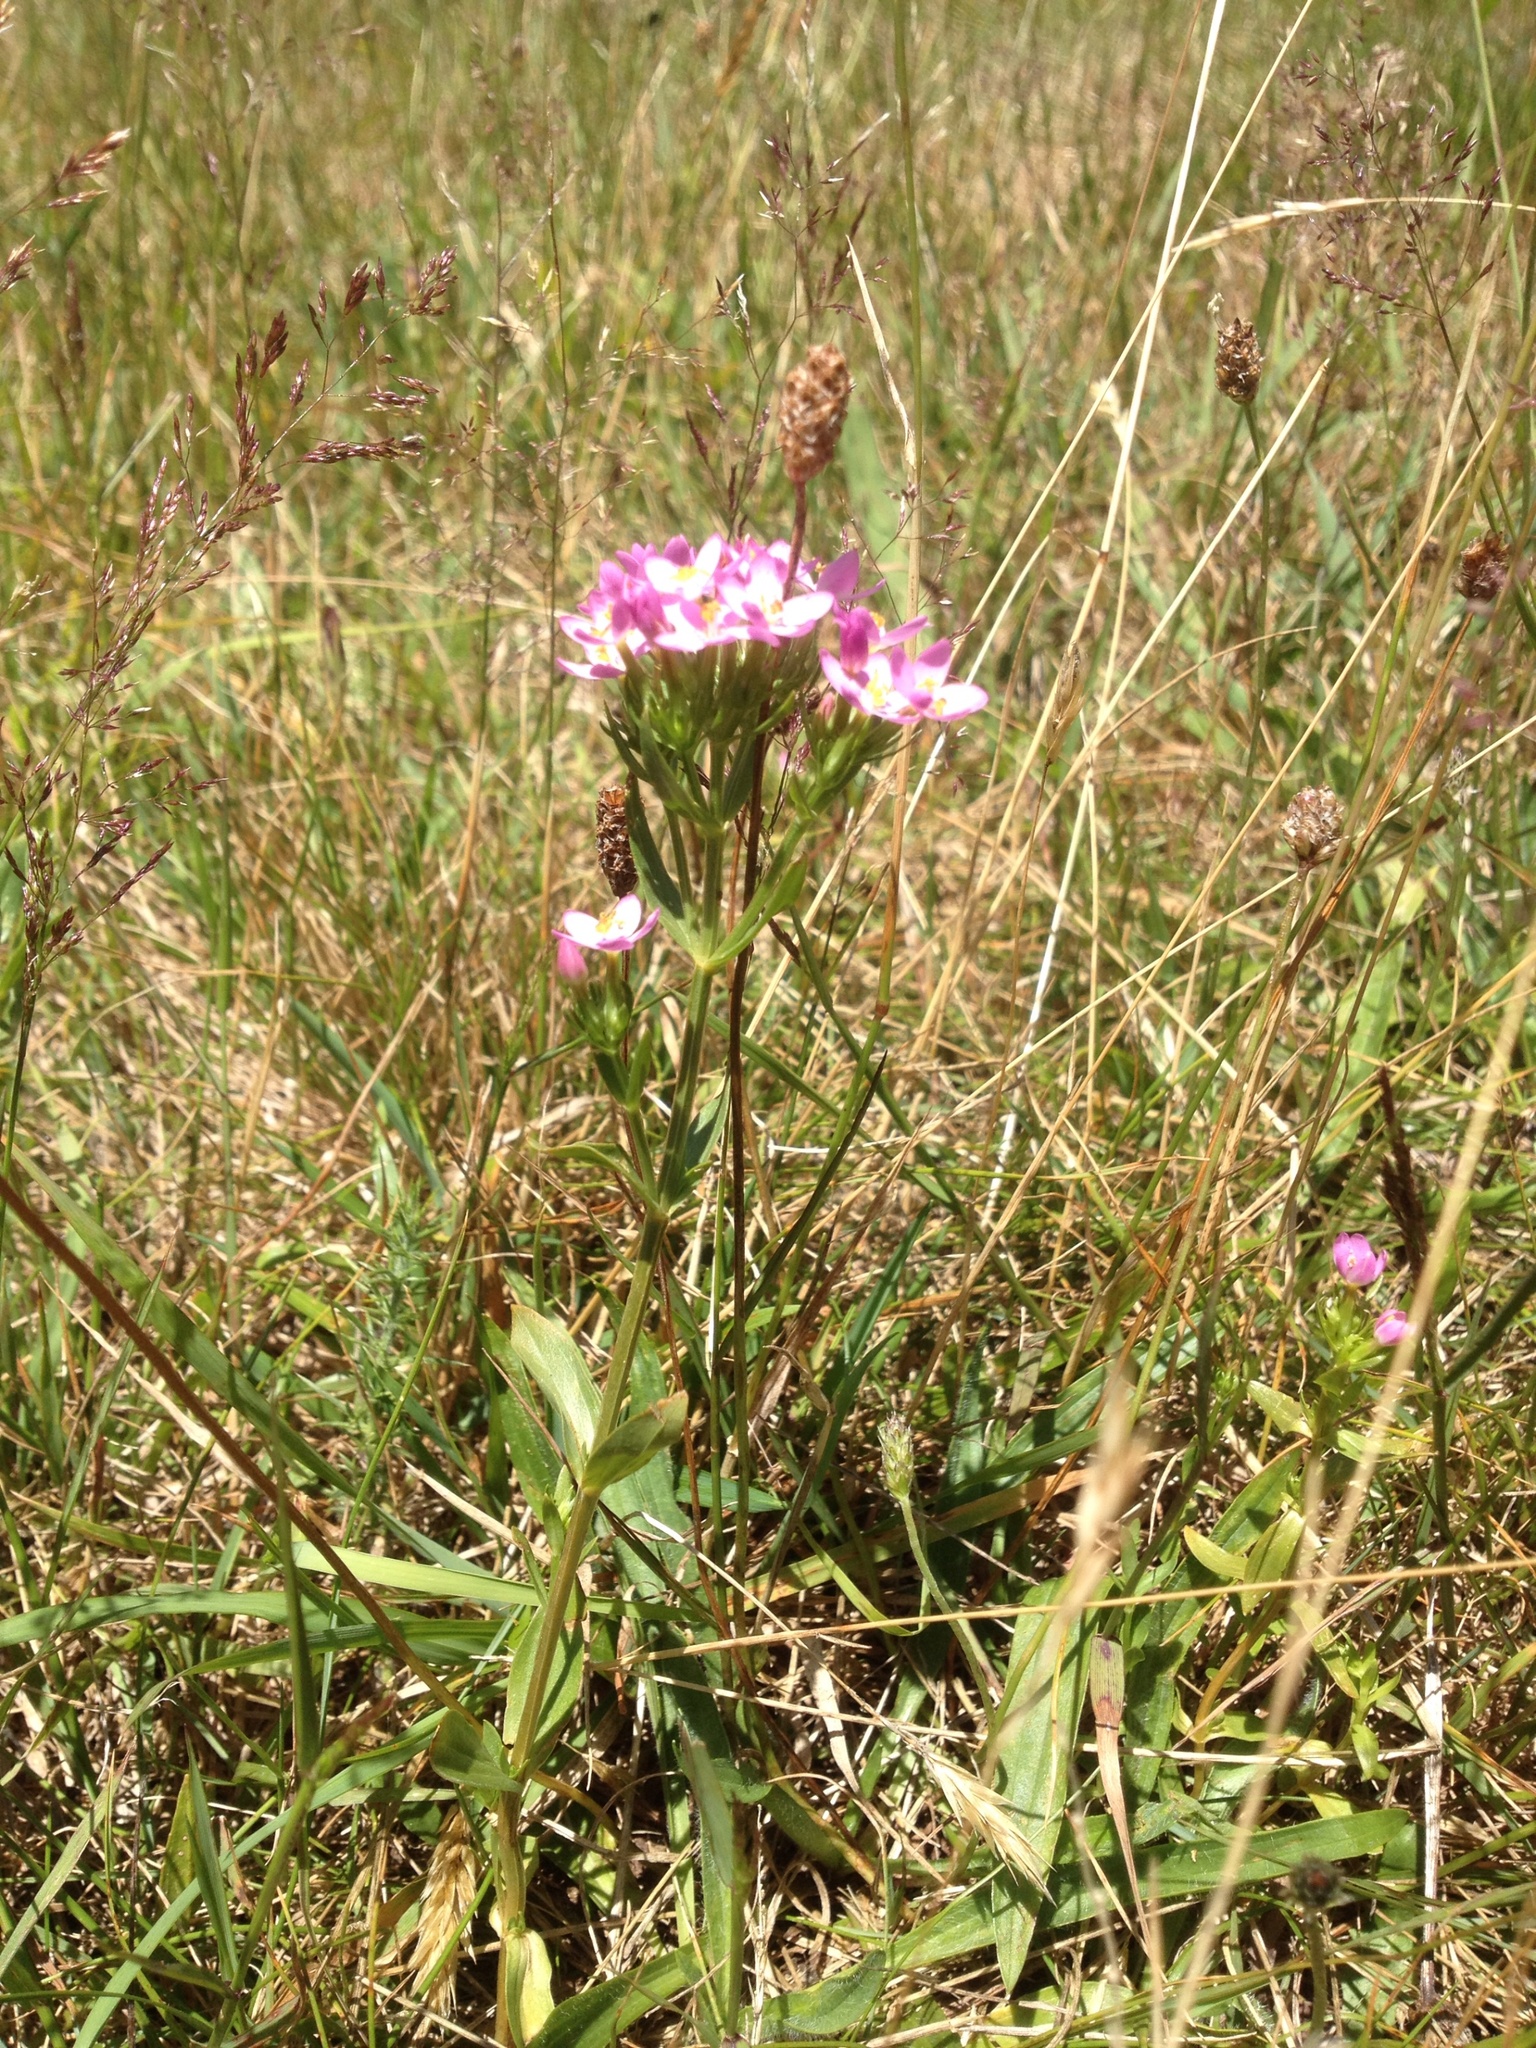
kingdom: Plantae
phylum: Tracheophyta
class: Magnoliopsida
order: Gentianales
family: Gentianaceae
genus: Centaurium
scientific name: Centaurium erythraea
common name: Common centaury
